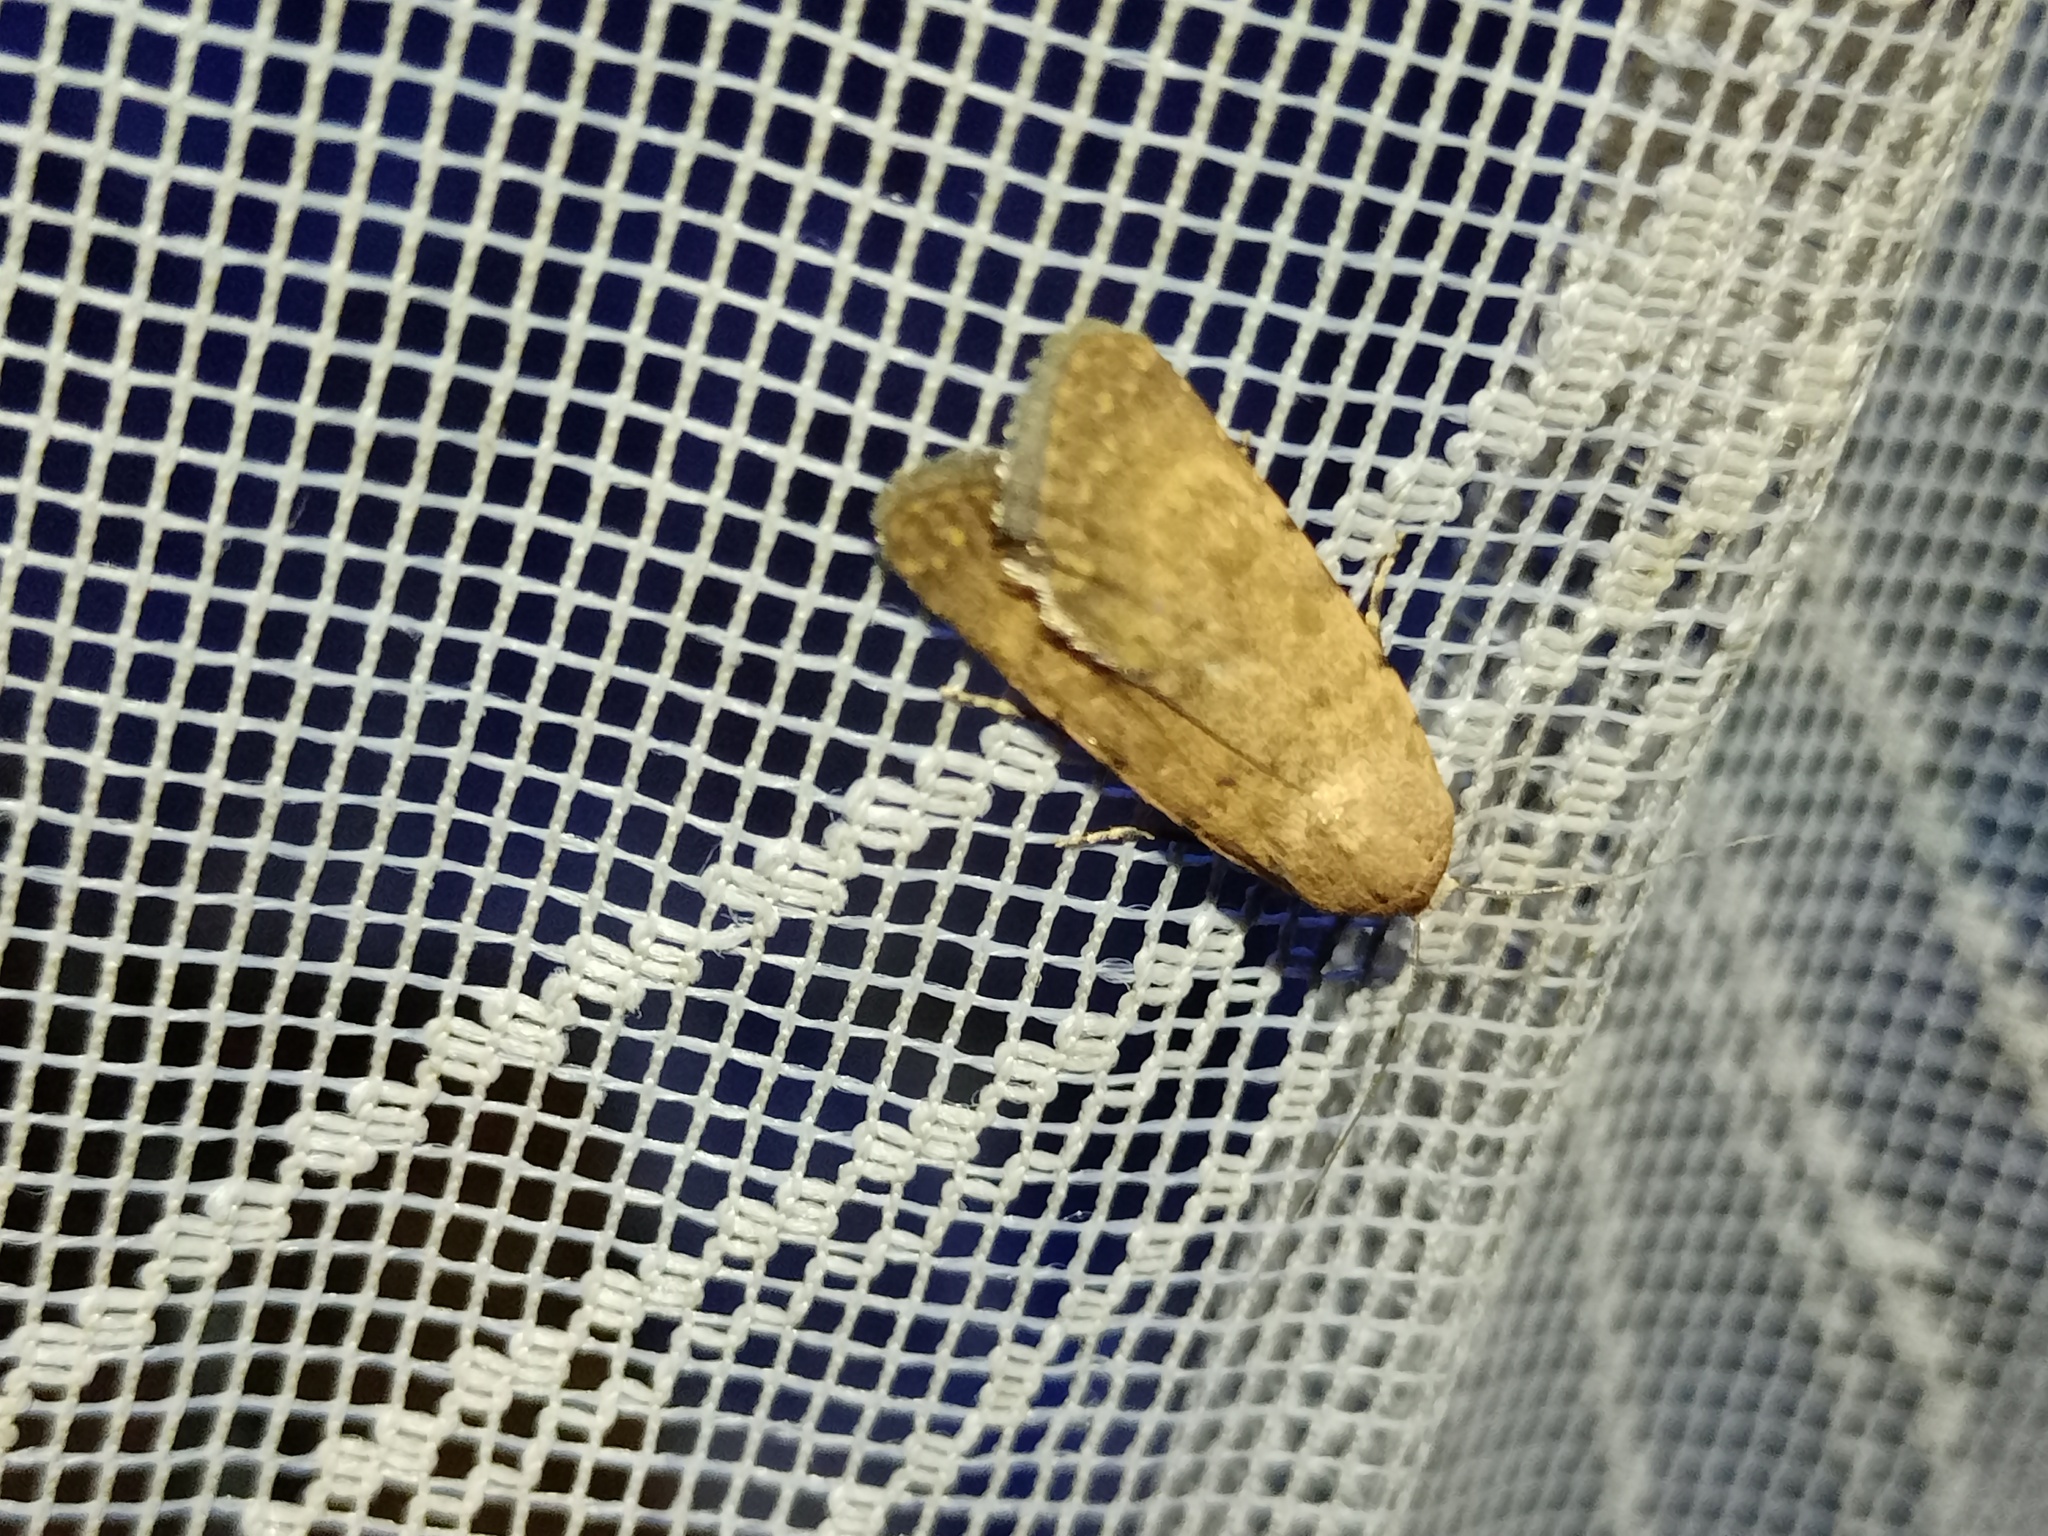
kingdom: Animalia
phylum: Arthropoda
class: Insecta
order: Lepidoptera
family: Noctuidae
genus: Caradrina
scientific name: Caradrina flava
